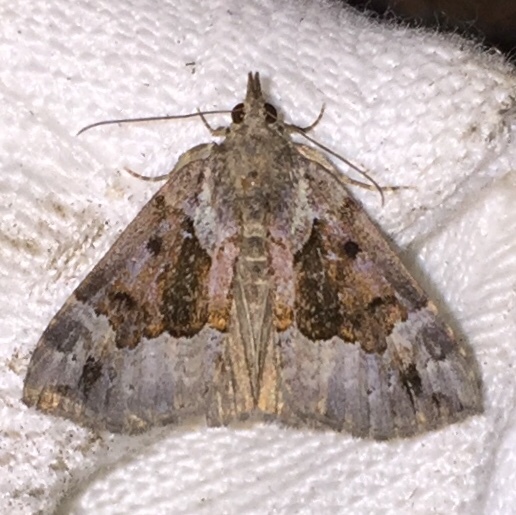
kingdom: Animalia
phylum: Arthropoda
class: Insecta
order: Lepidoptera
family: Erebidae
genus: Hypena
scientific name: Hypena palparia
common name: Mottled bomolocha moth
